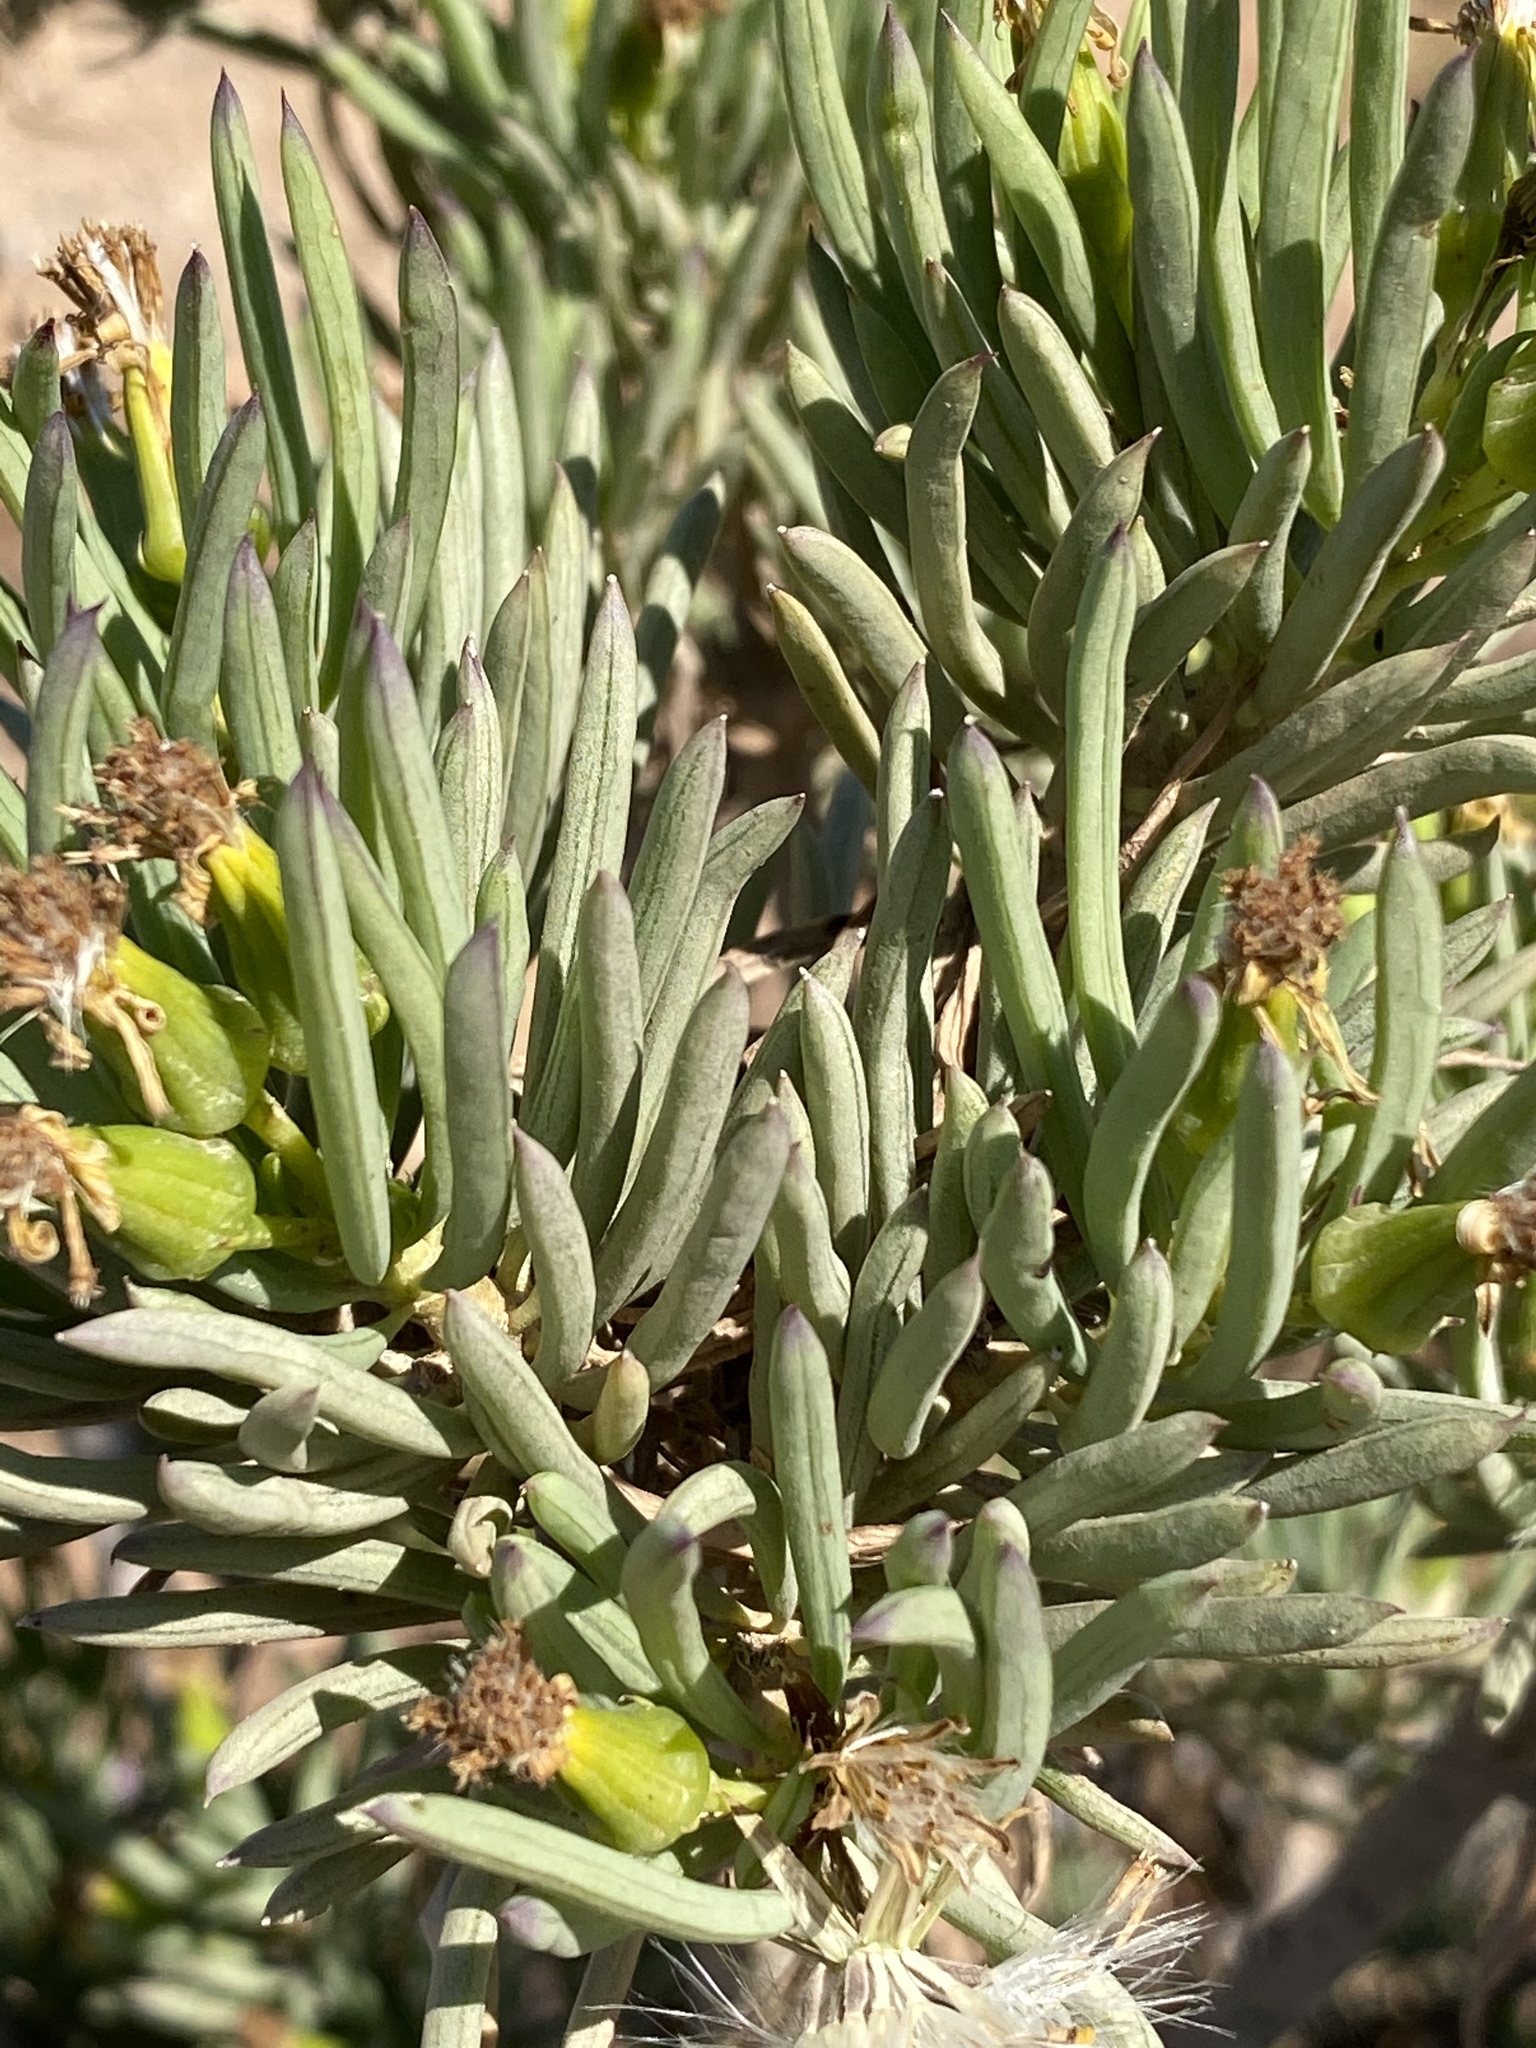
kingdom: Plantae
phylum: Tracheophyta
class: Magnoliopsida
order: Asterales
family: Asteraceae
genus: Senecio
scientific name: Senecio cotyledonis
